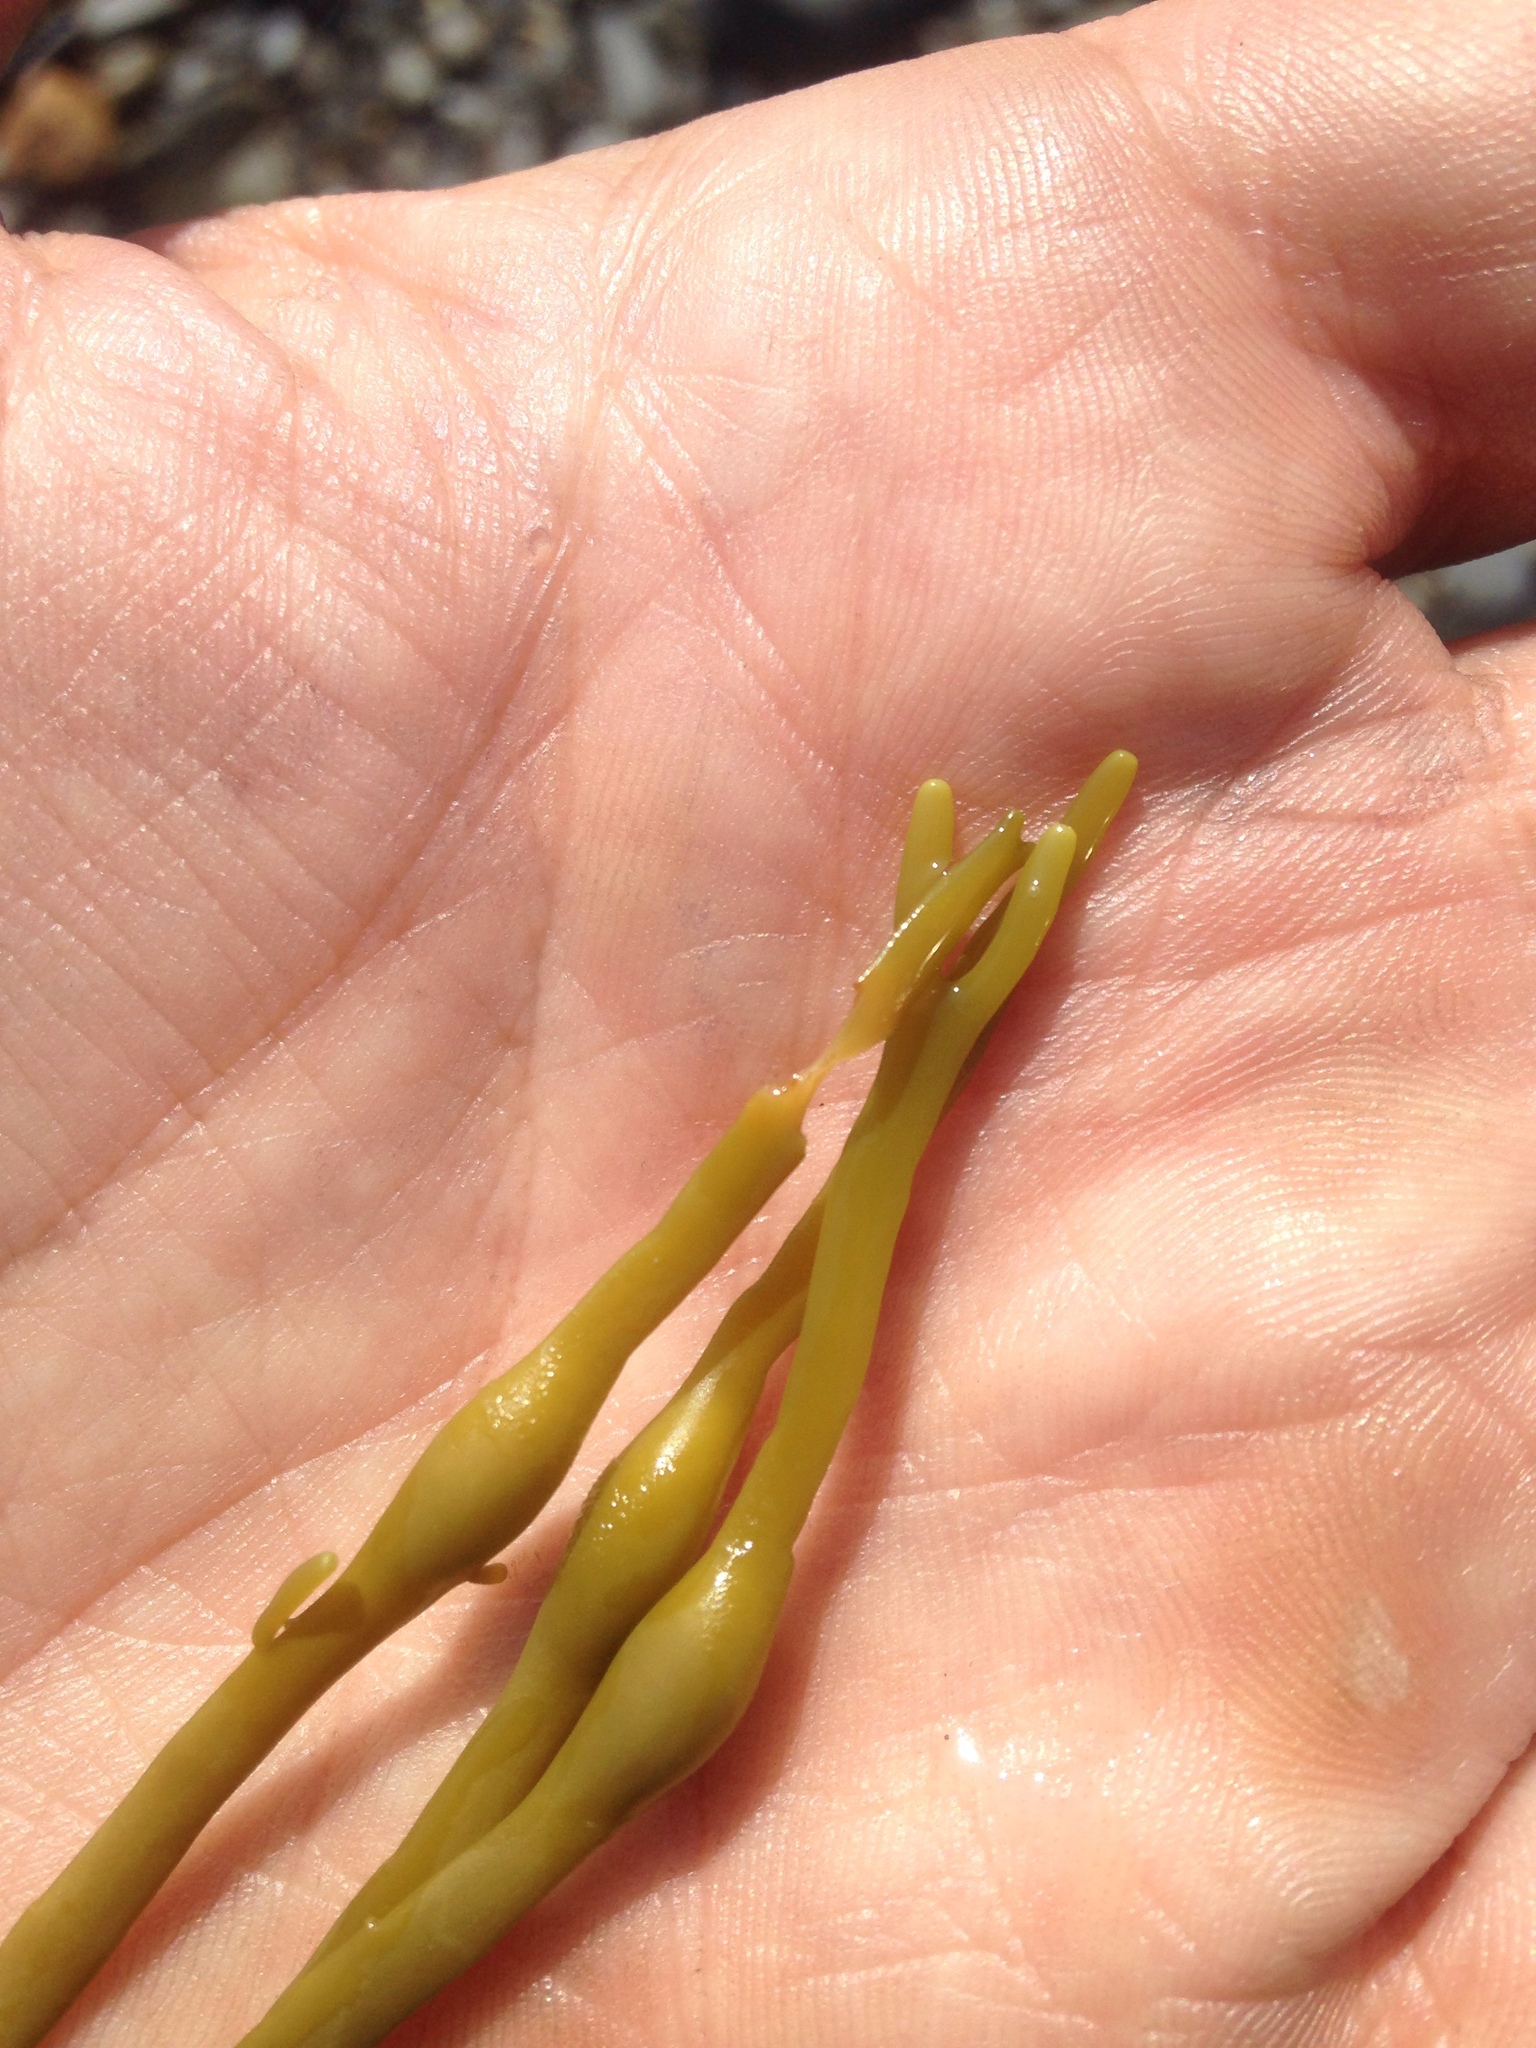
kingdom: Chromista
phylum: Ochrophyta
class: Phaeophyceae
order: Fucales
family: Fucaceae
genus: Ascophyllum
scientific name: Ascophyllum nodosum
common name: Knotted wrack
